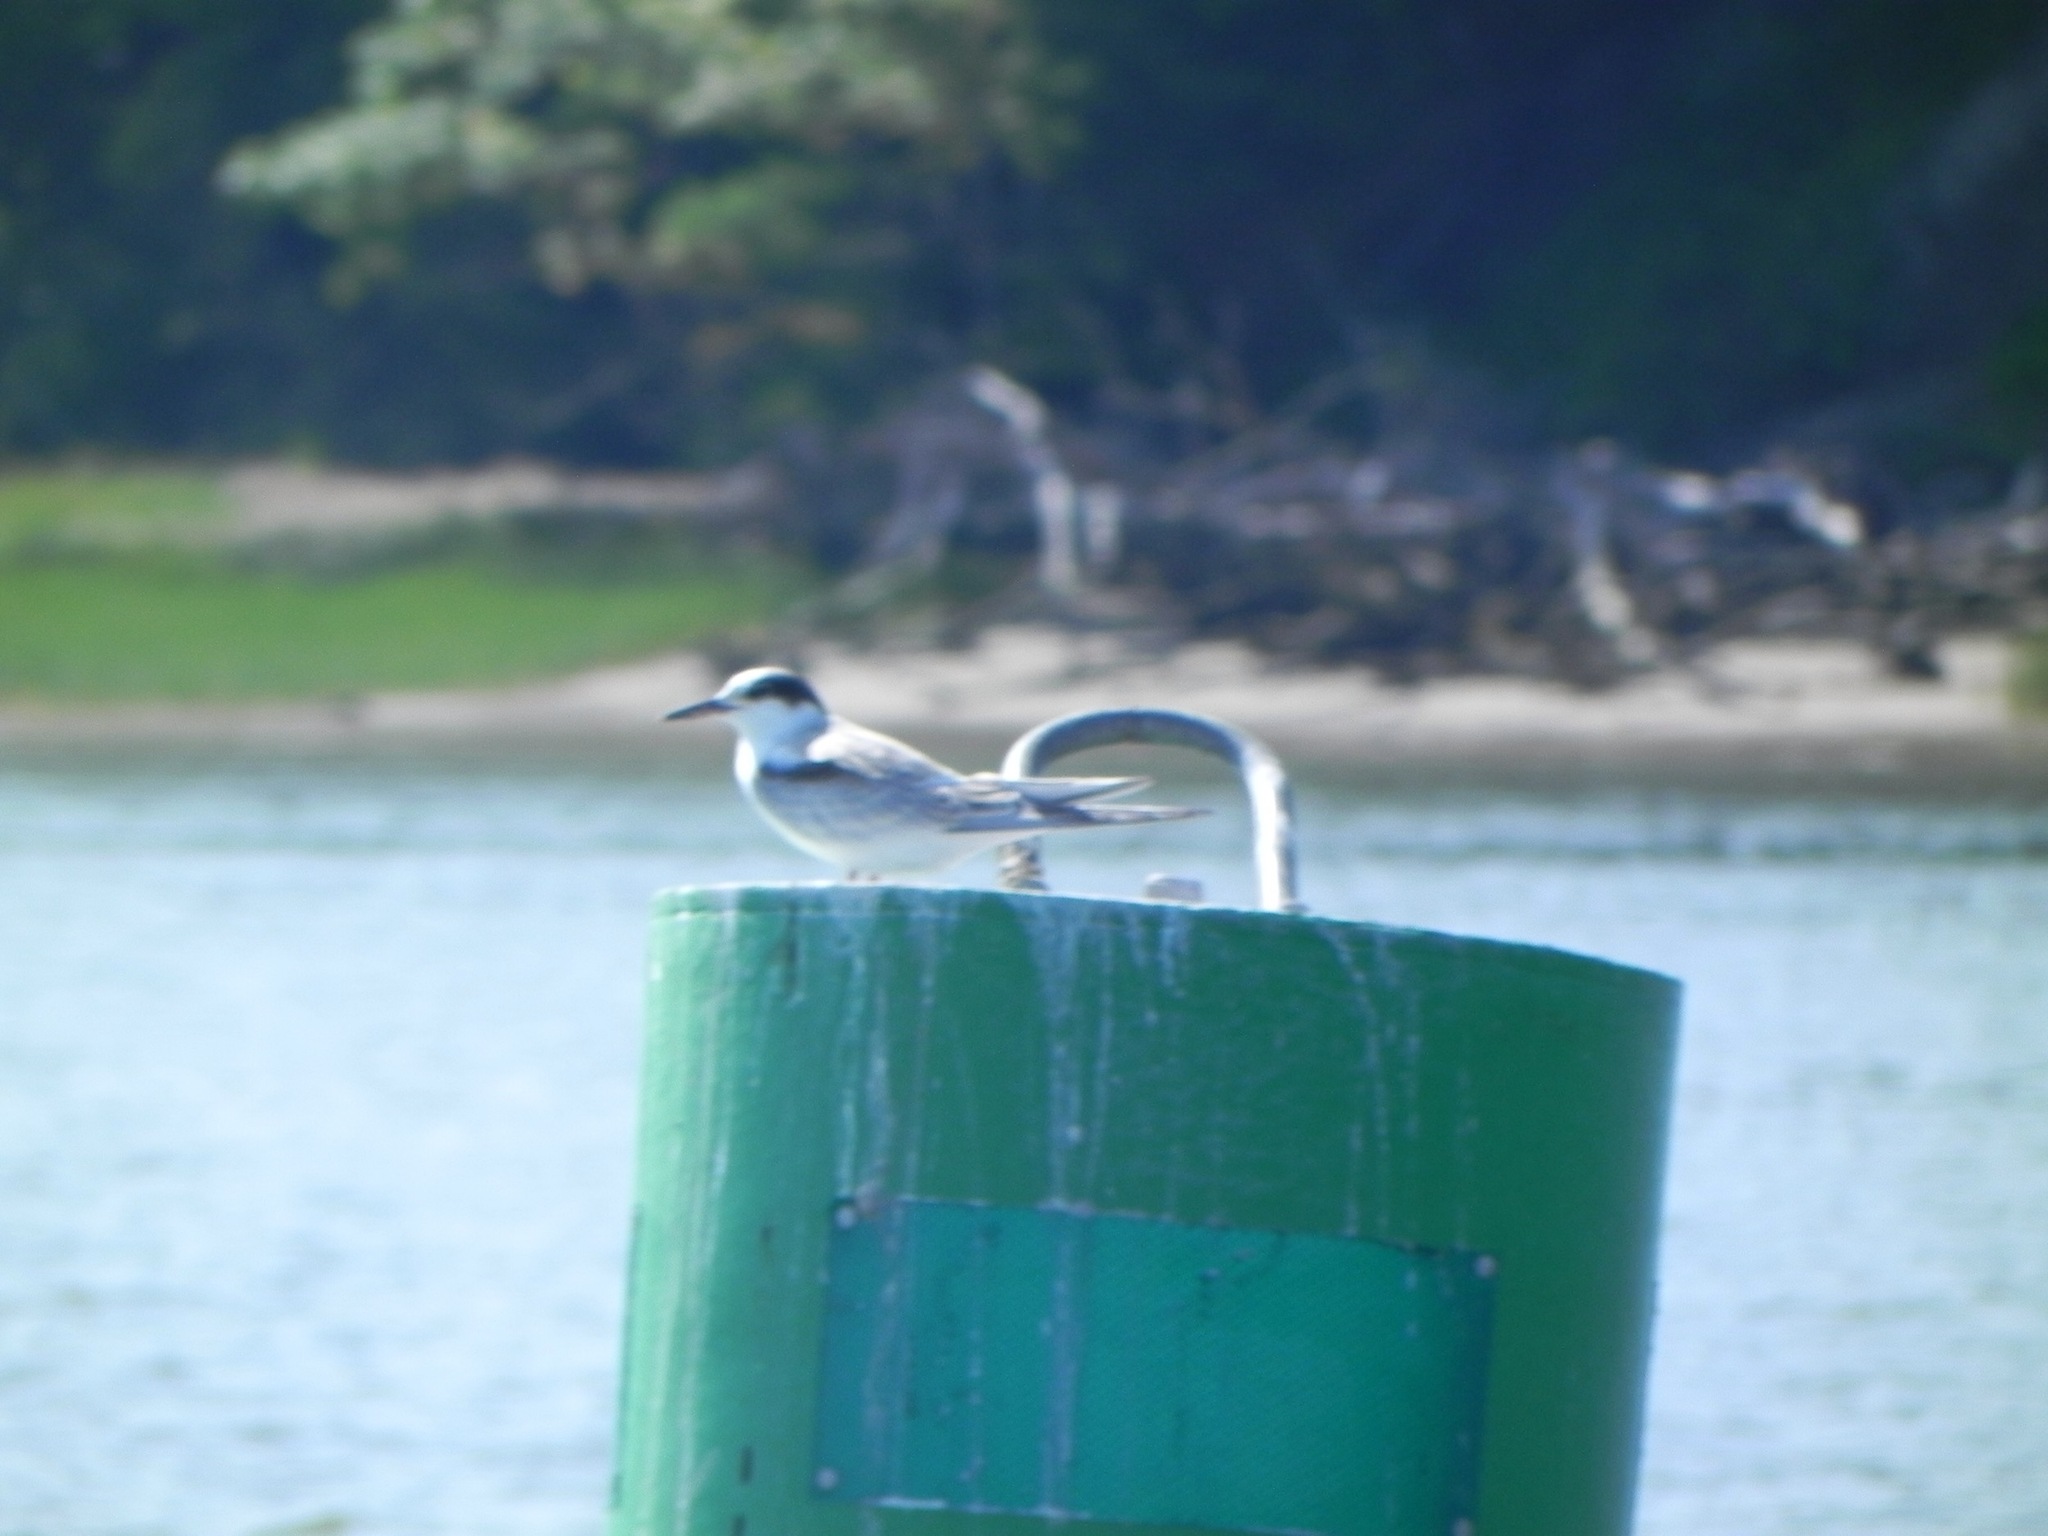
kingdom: Animalia
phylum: Chordata
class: Aves
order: Charadriiformes
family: Laridae
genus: Sterna
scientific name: Sterna hirundo
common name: Common tern
